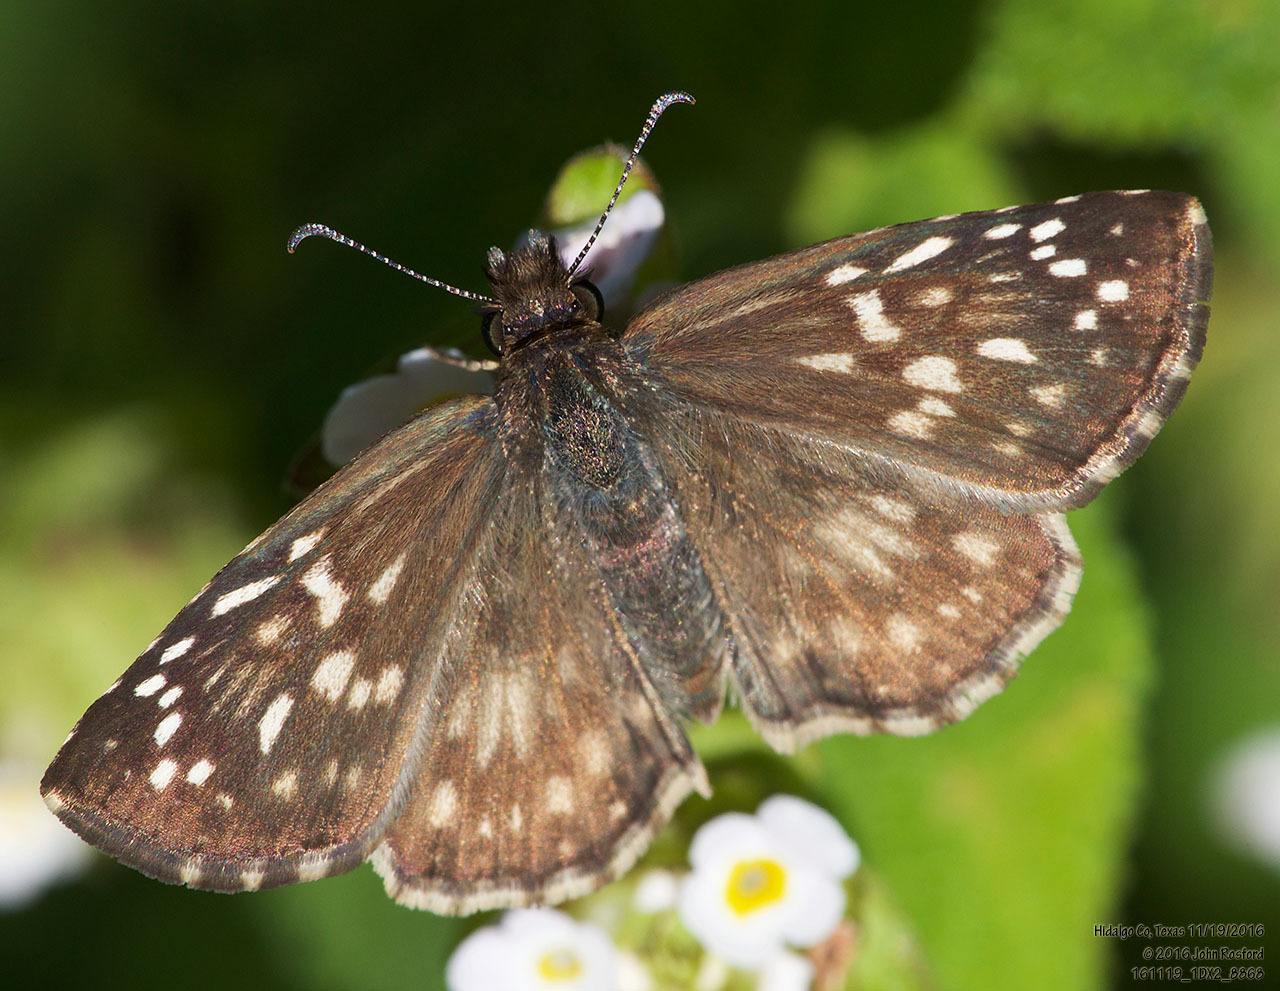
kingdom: Animalia
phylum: Arthropoda
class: Insecta
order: Lepidoptera
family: Hesperiidae
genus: Pyrgus
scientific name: Pyrgus oileus
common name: Tropical checkered-skipper
